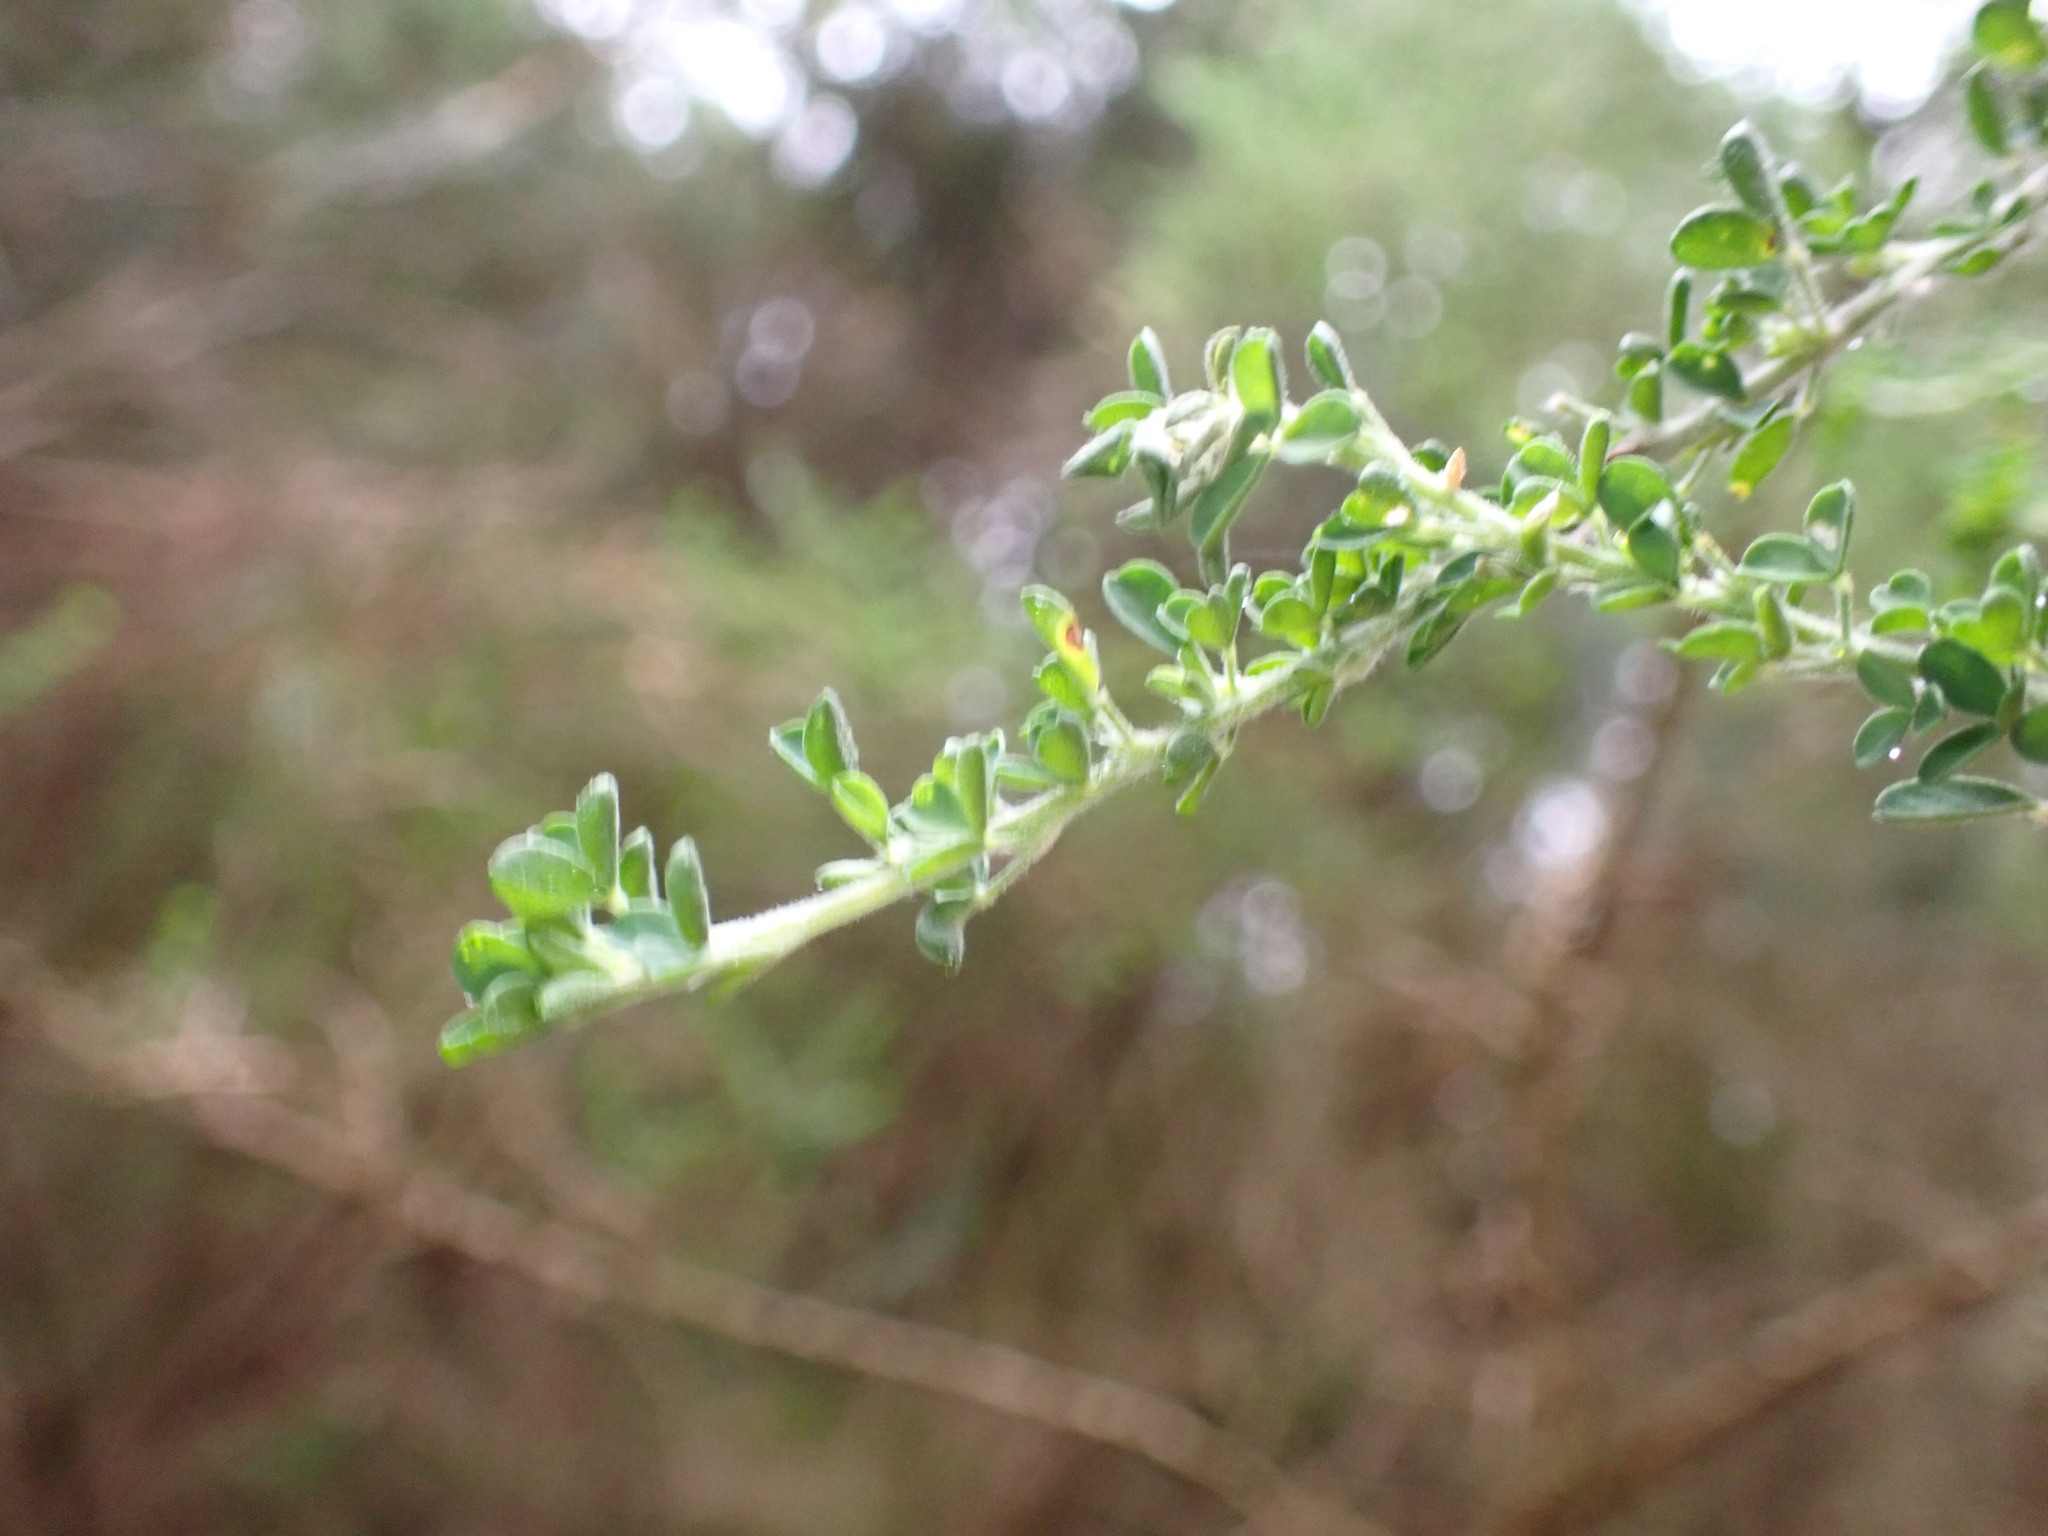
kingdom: Plantae
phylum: Tracheophyta
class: Magnoliopsida
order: Fabales
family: Fabaceae
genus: Adenocarpus
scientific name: Adenocarpus foliolosus
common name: Canary island flatpod
